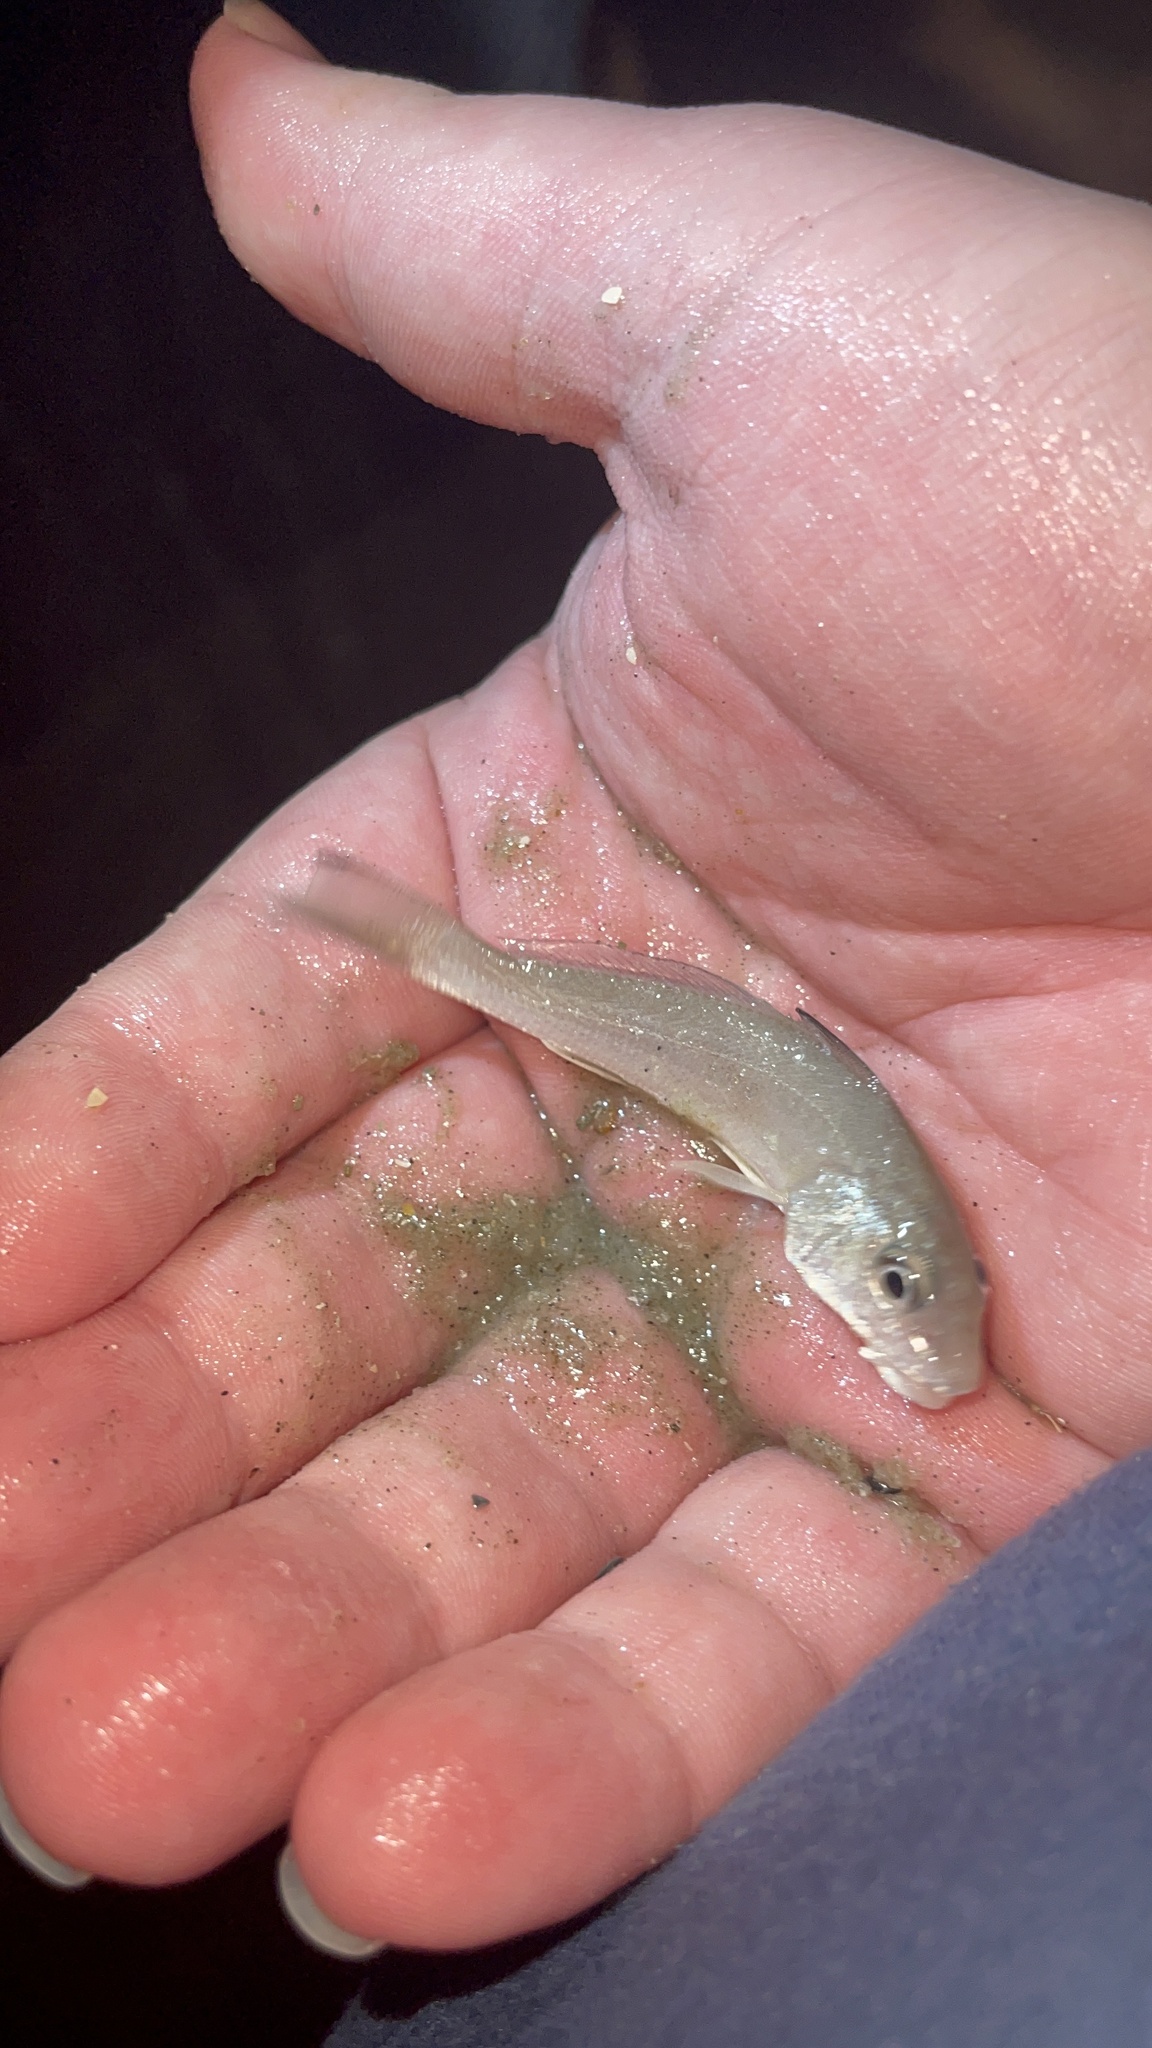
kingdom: Animalia
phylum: Chordata
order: Perciformes
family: Sciaenidae
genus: Menticirrhus
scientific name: Menticirrhus littoralis
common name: Gulf kingcroaker
